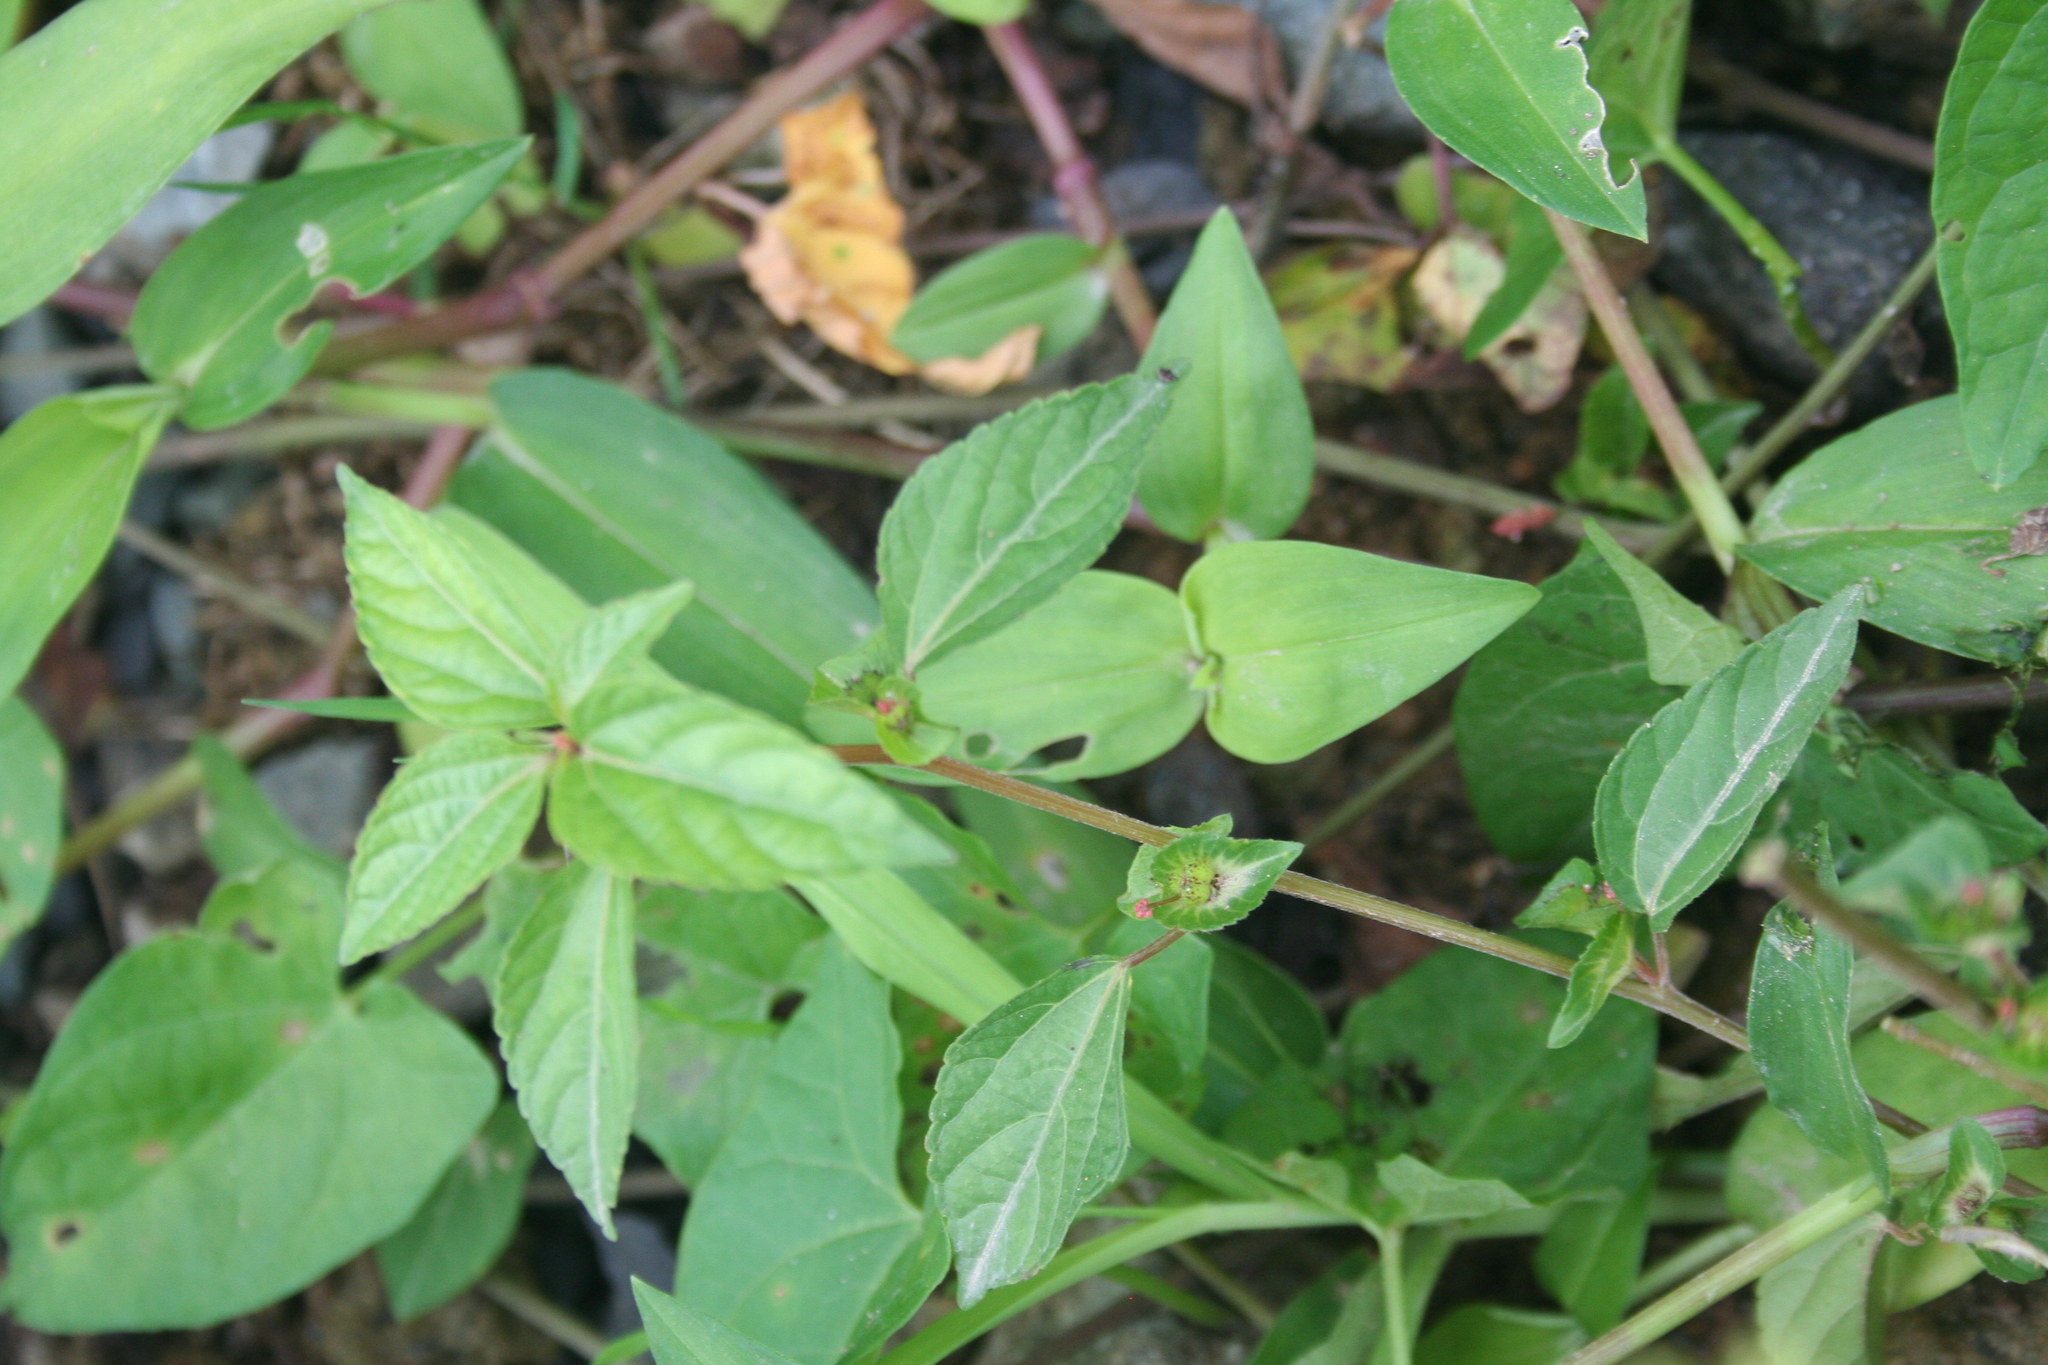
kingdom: Plantae
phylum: Tracheophyta
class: Magnoliopsida
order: Malpighiales
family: Euphorbiaceae
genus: Acalypha
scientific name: Acalypha australis
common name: Asian copperleaf
